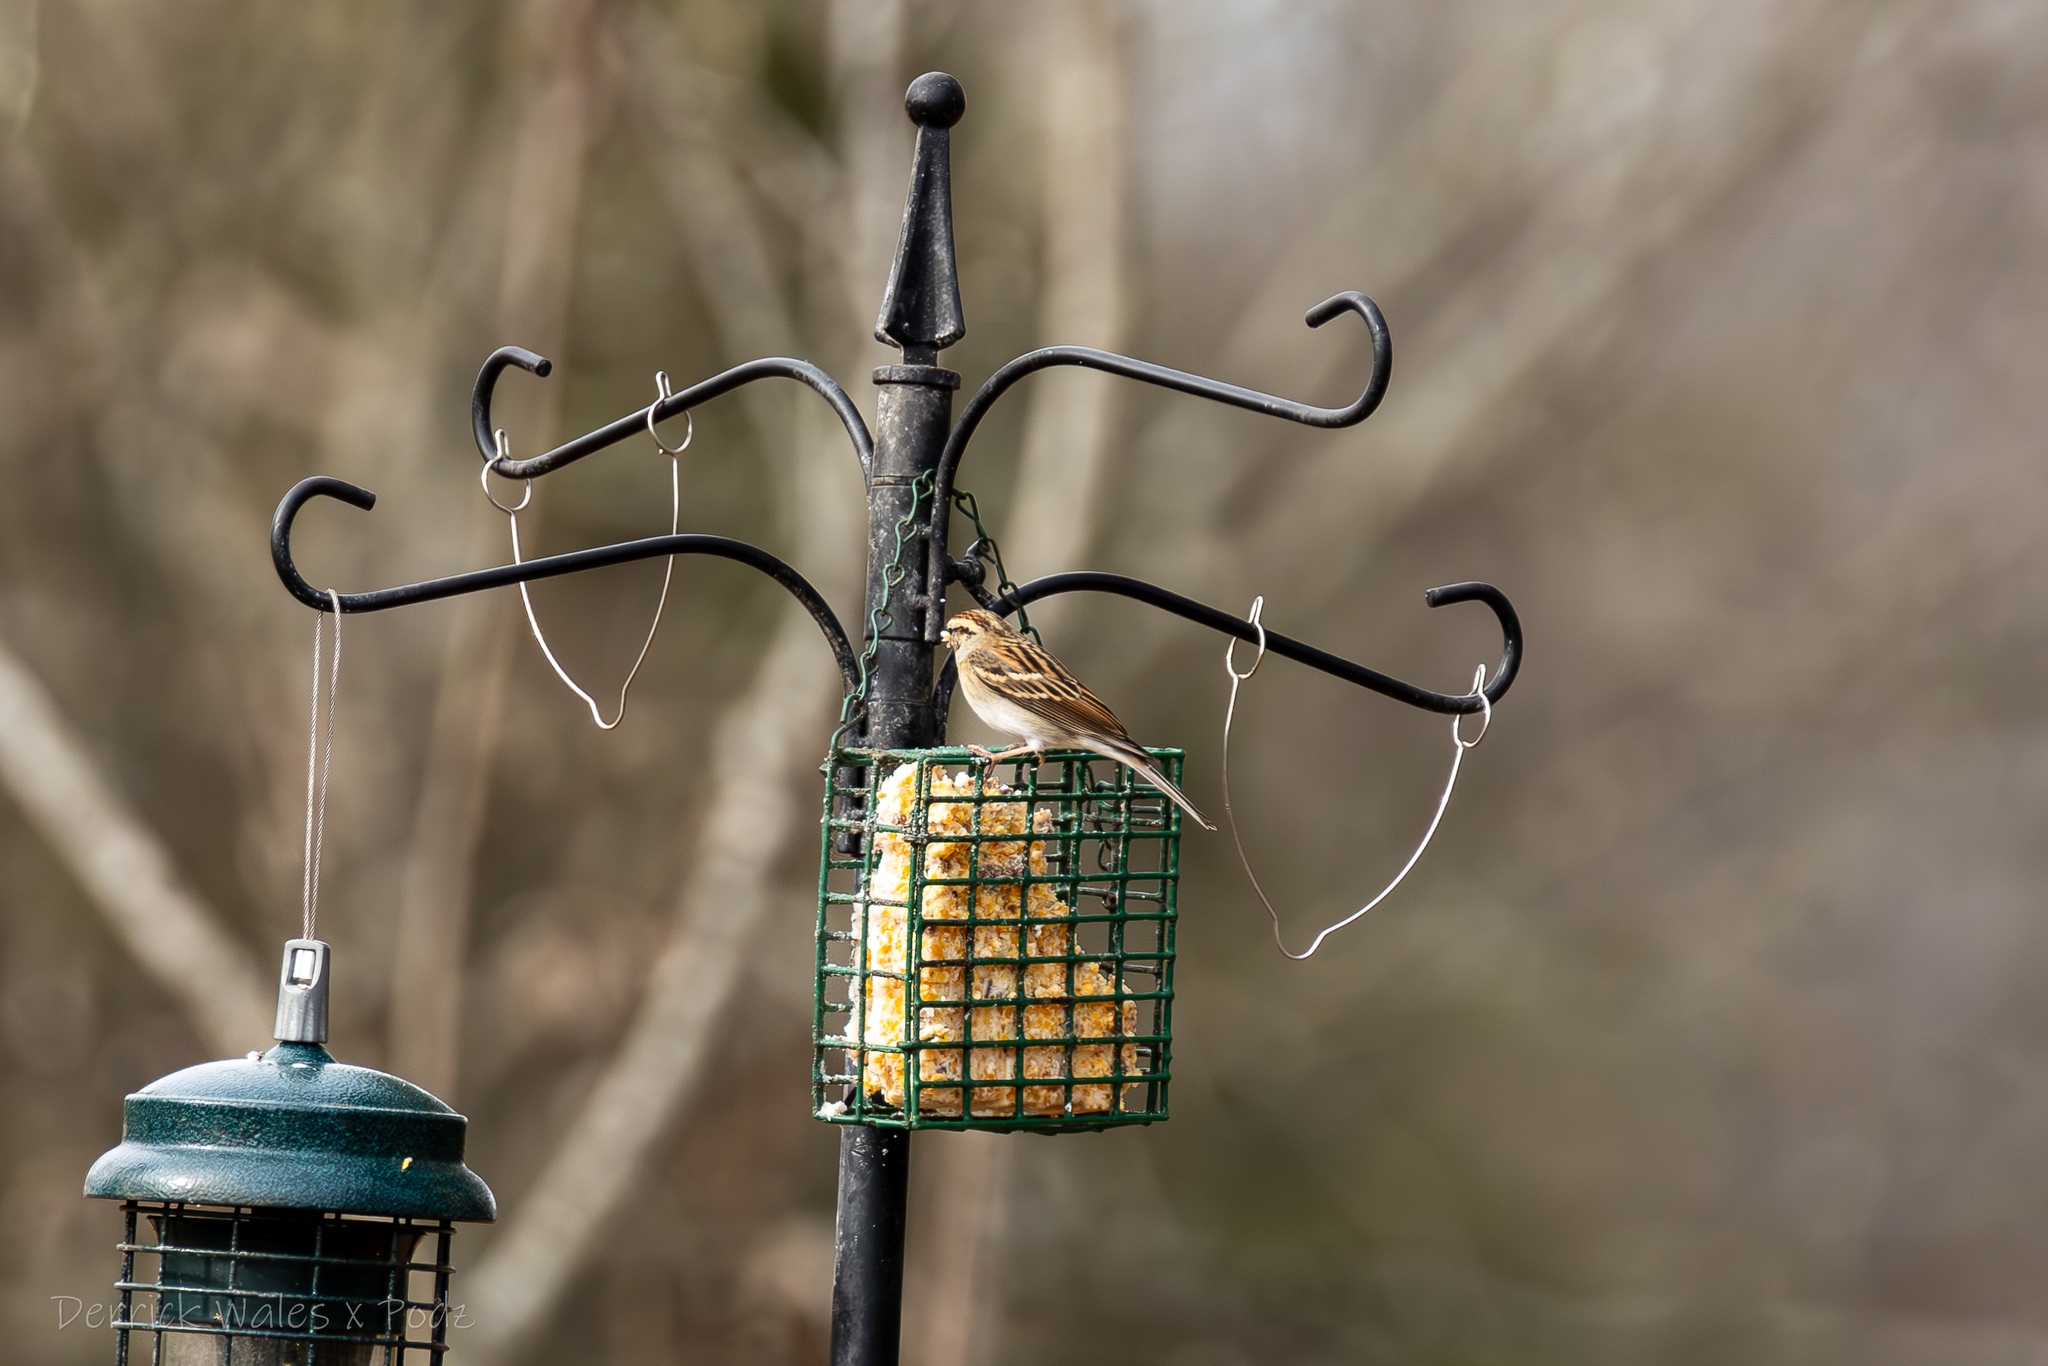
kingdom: Animalia
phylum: Chordata
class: Aves
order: Passeriformes
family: Passerellidae
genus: Spizella
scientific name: Spizella passerina
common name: Chipping sparrow
